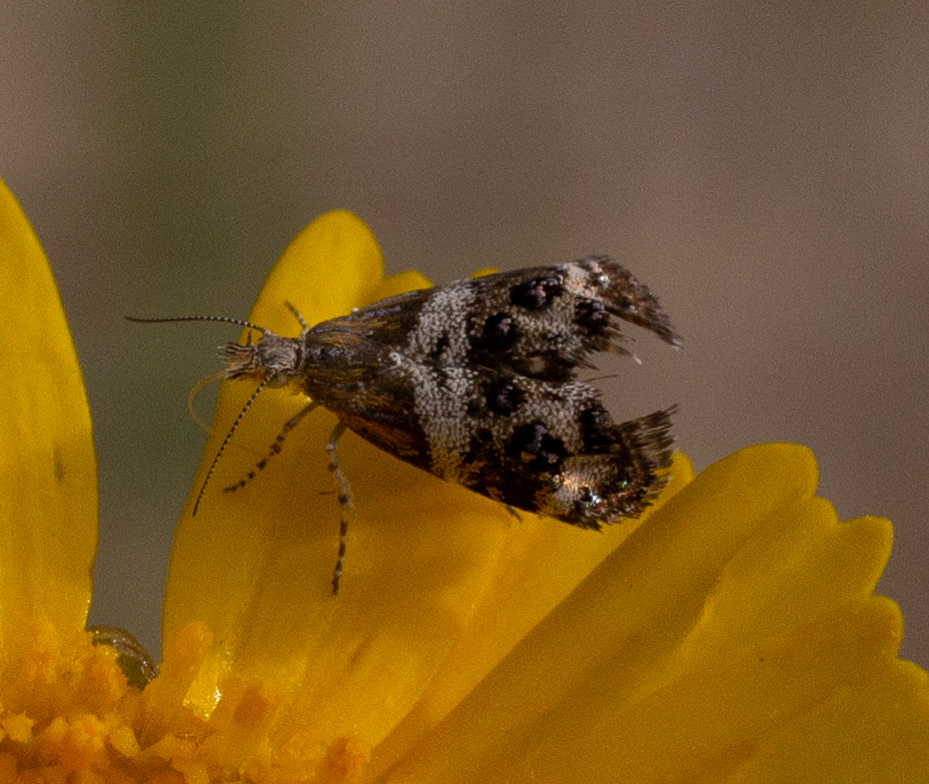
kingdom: Animalia
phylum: Arthropoda
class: Insecta
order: Lepidoptera
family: Choreutidae
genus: Tebenna
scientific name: Tebenna micalis
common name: Vagrant twitcher
